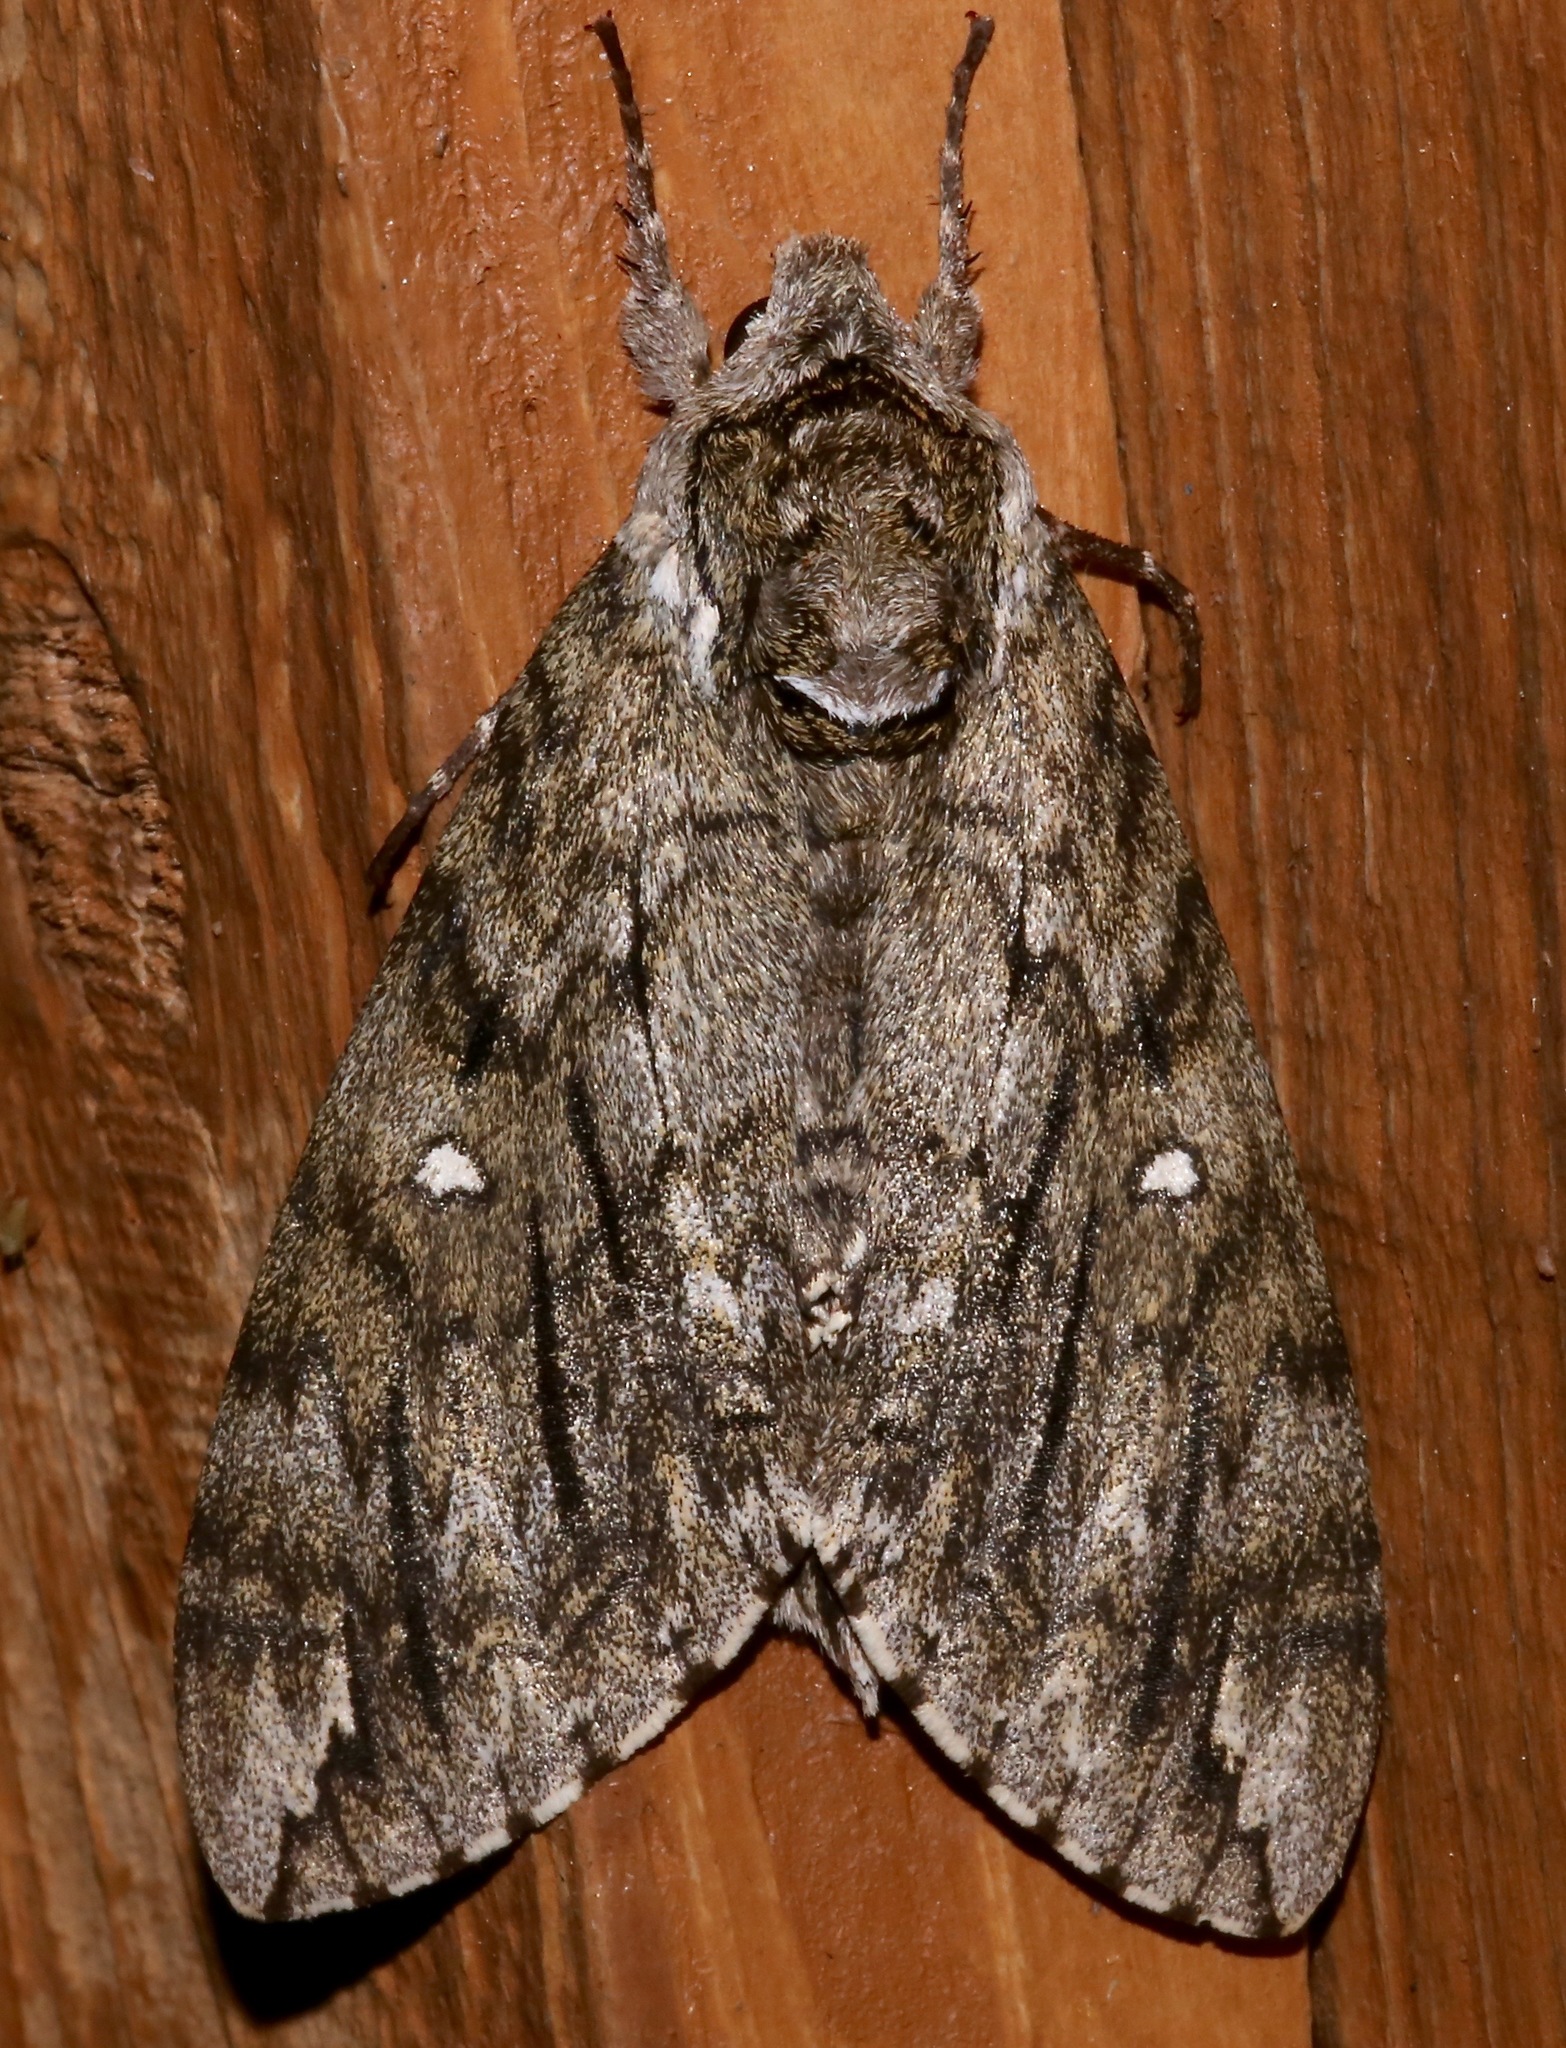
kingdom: Animalia
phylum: Arthropoda
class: Insecta
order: Lepidoptera
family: Sphingidae
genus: Ceratomia
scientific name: Ceratomia undulosa
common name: Waved sphinx
